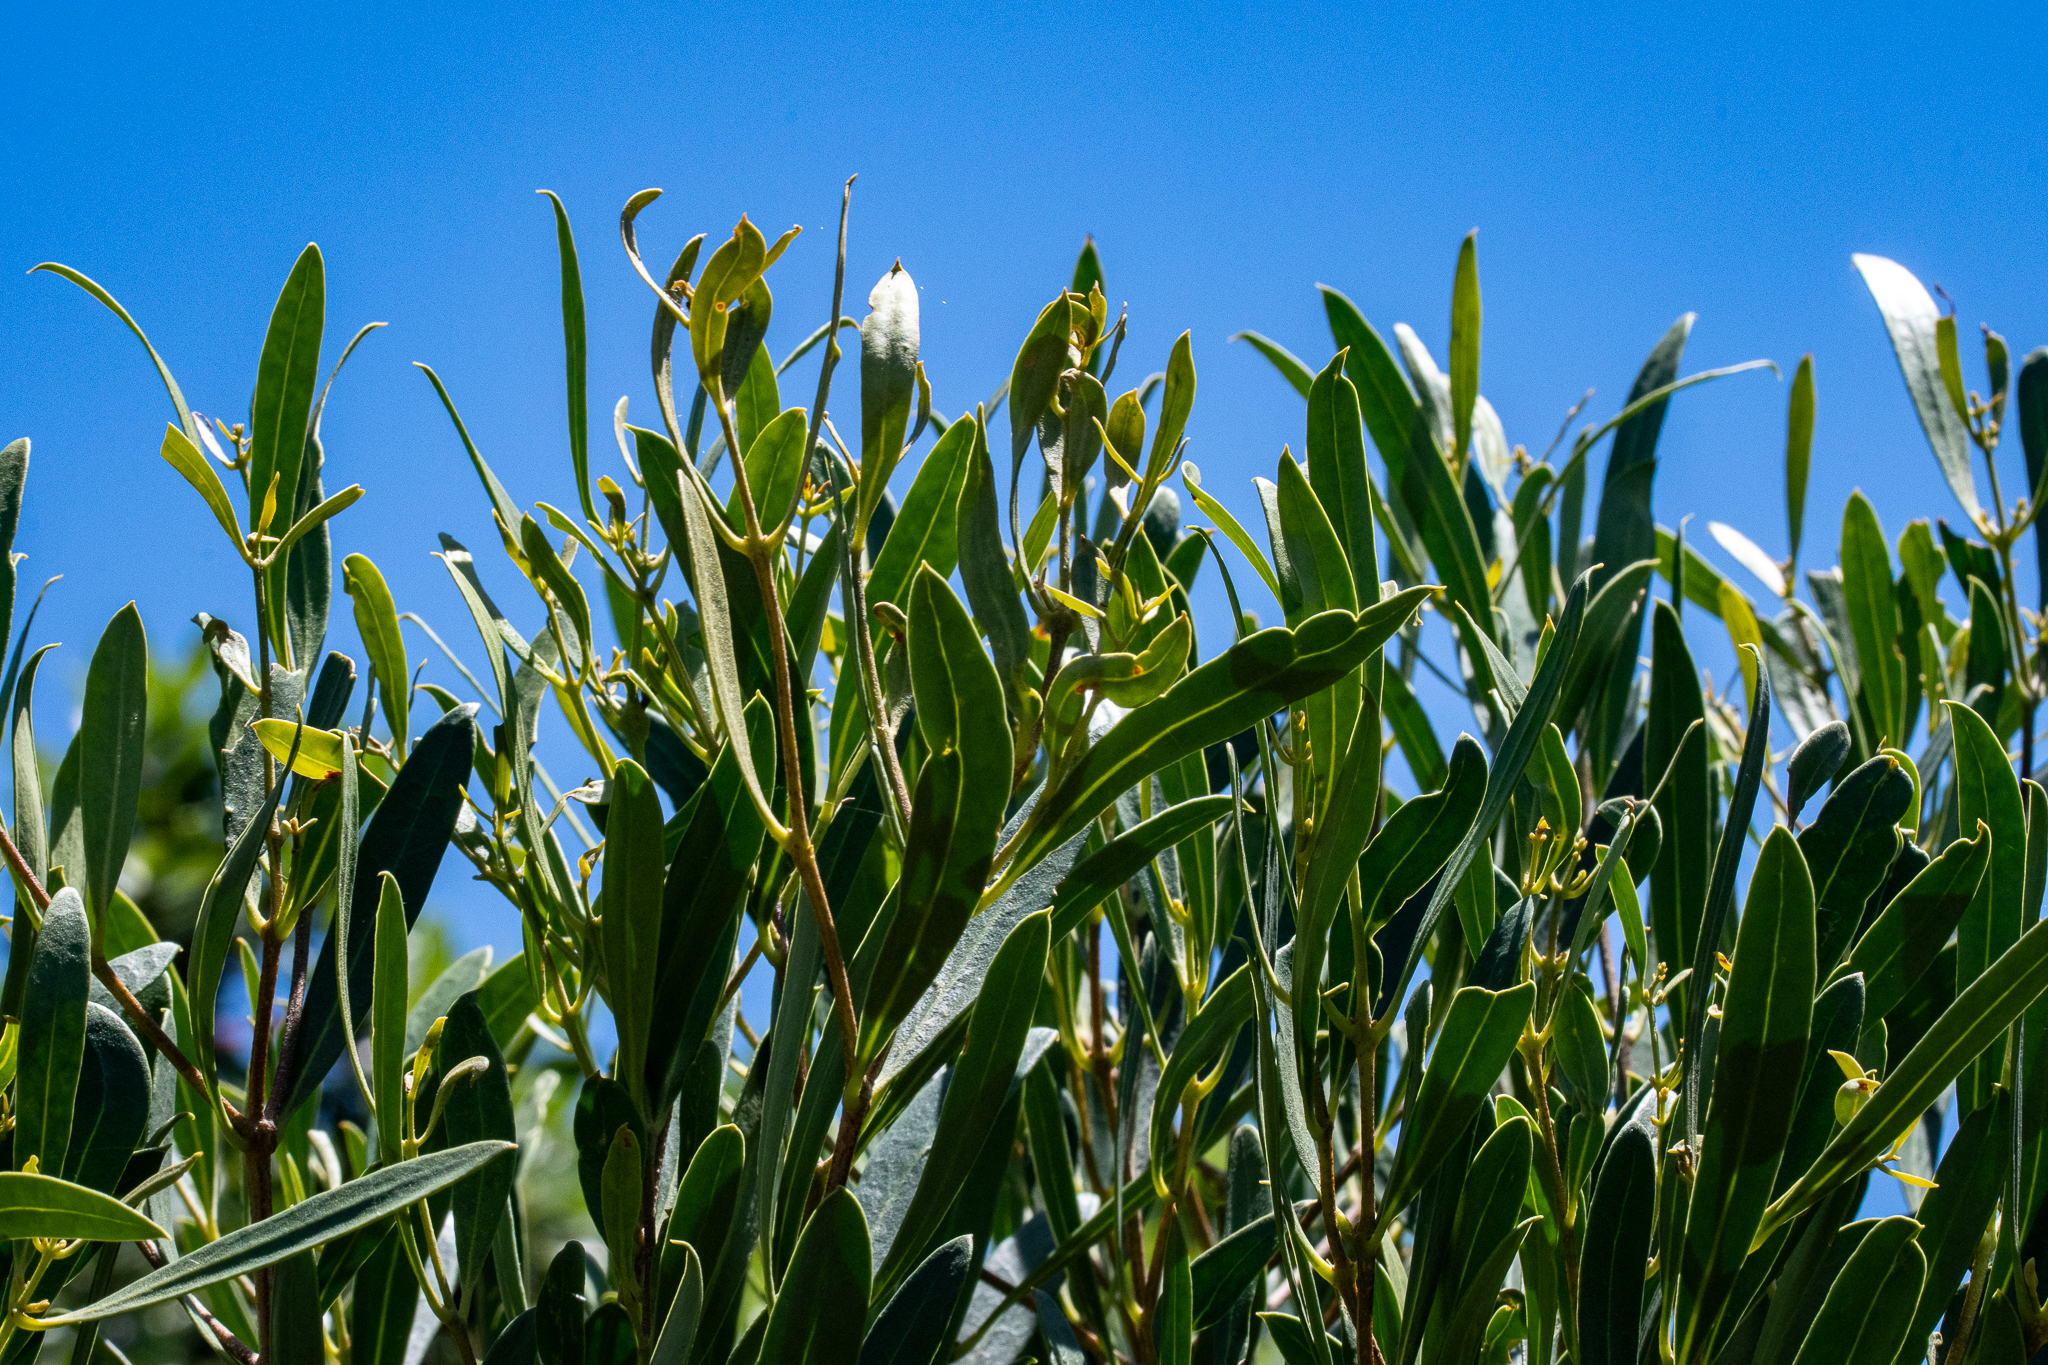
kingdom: Plantae
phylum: Tracheophyta
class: Magnoliopsida
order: Fabales
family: Fabaceae
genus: Acacia
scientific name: Acacia saligna
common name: Orange wattle
